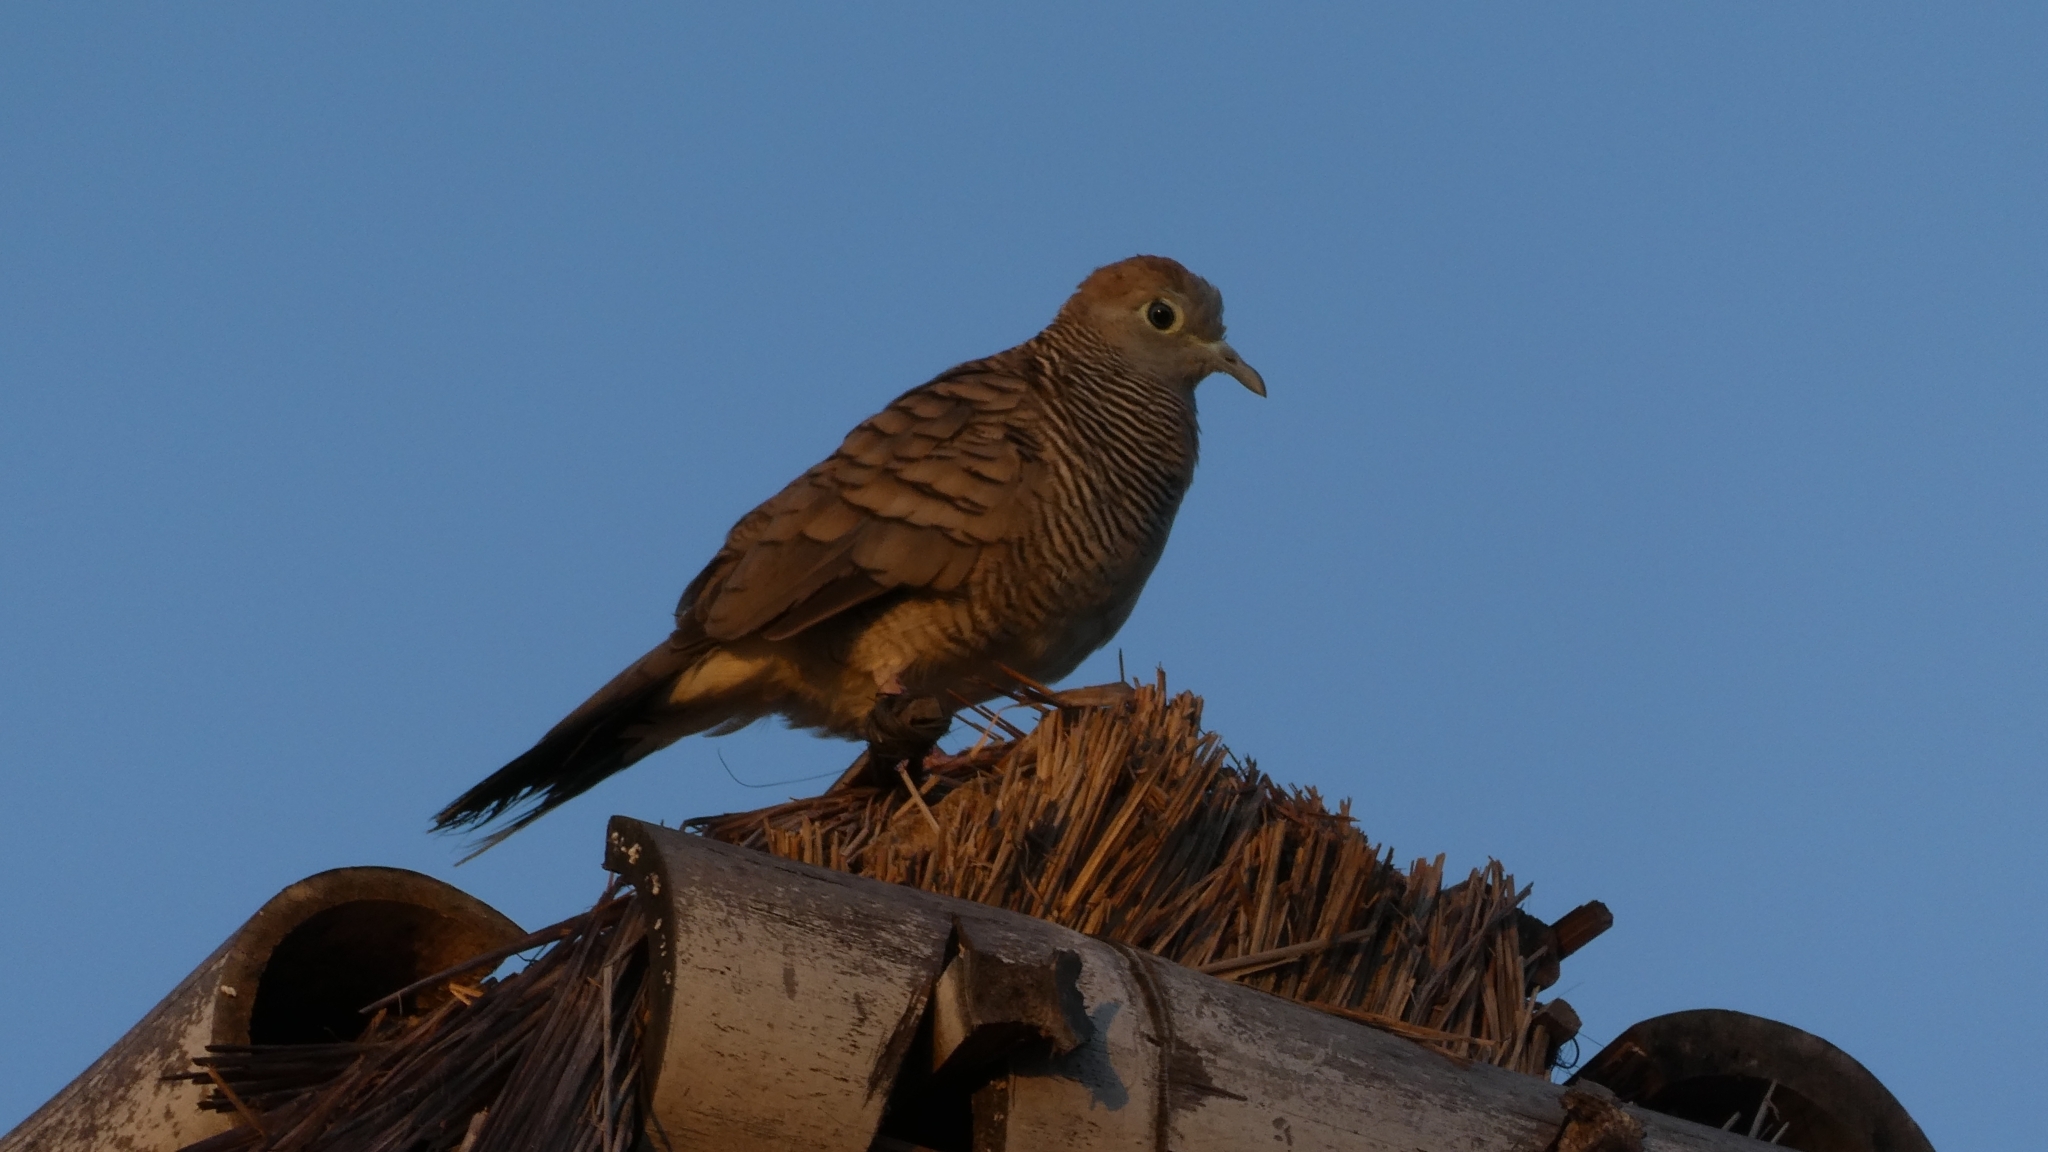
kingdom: Animalia
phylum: Chordata
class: Aves
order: Columbiformes
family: Columbidae
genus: Geopelia
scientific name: Geopelia striata
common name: Zebra dove
